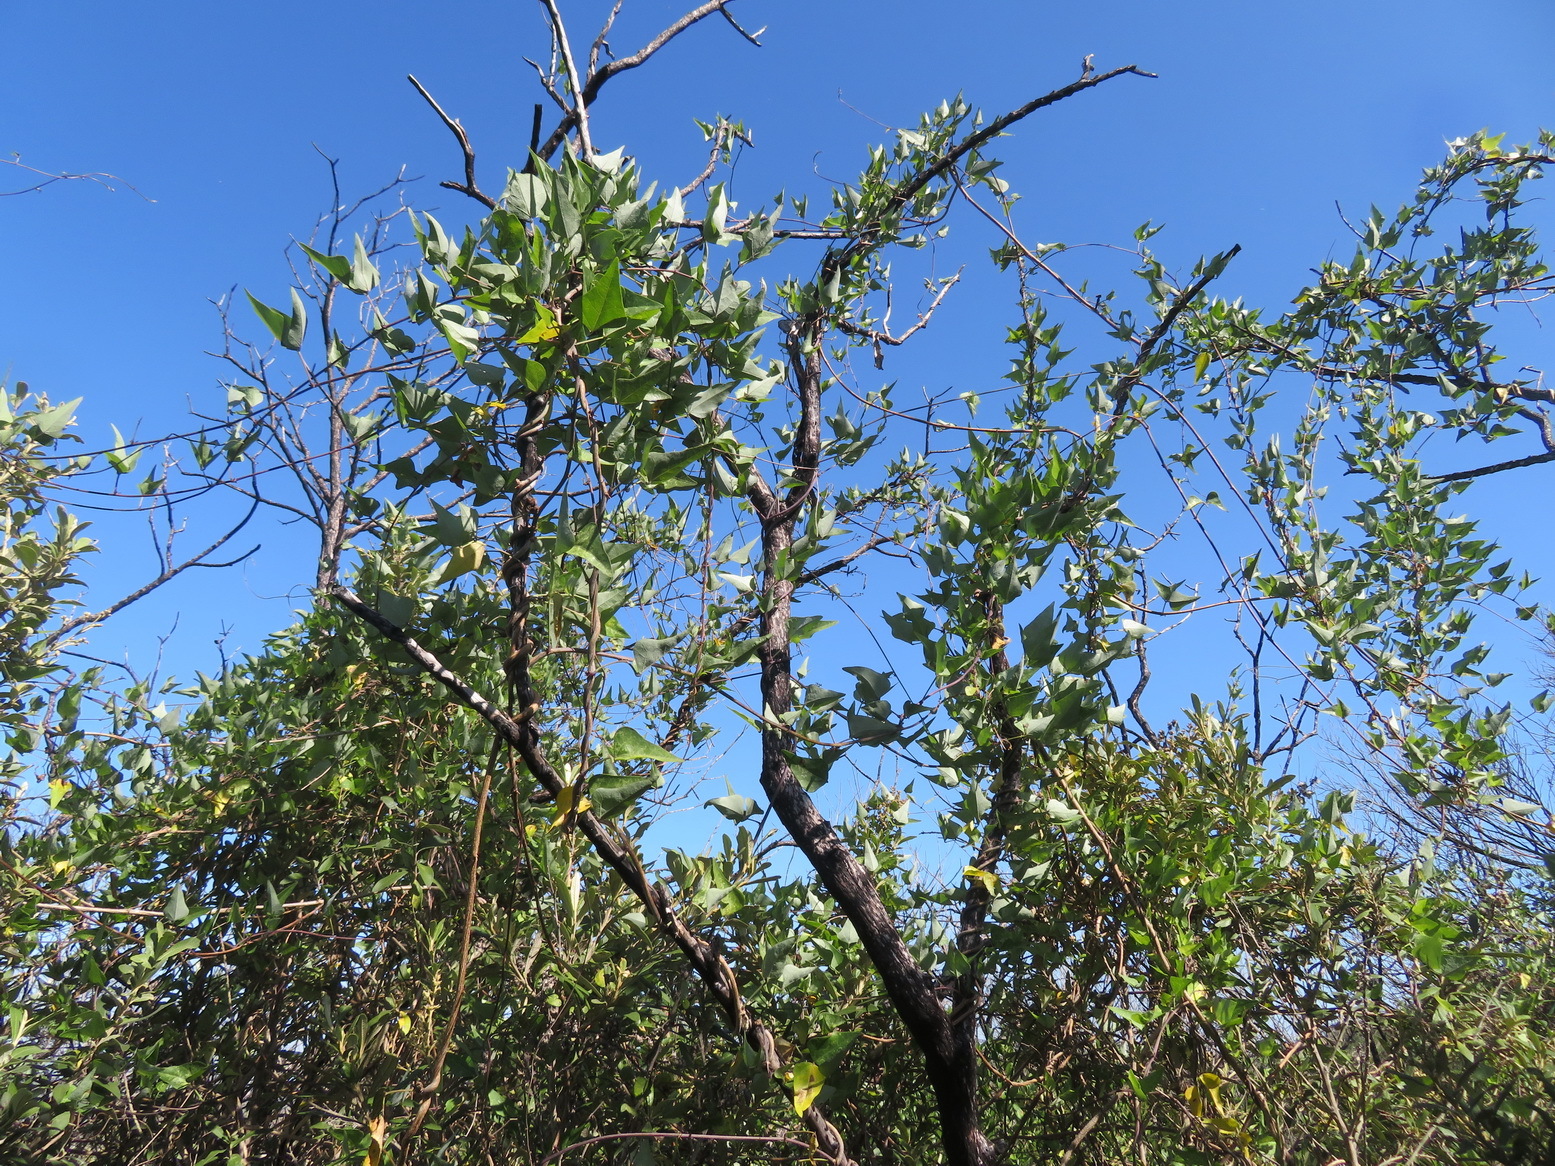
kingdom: Plantae
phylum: Tracheophyta
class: Magnoliopsida
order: Fabales
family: Fabaceae
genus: Dipogon
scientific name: Dipogon lignosus
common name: Okie bean
